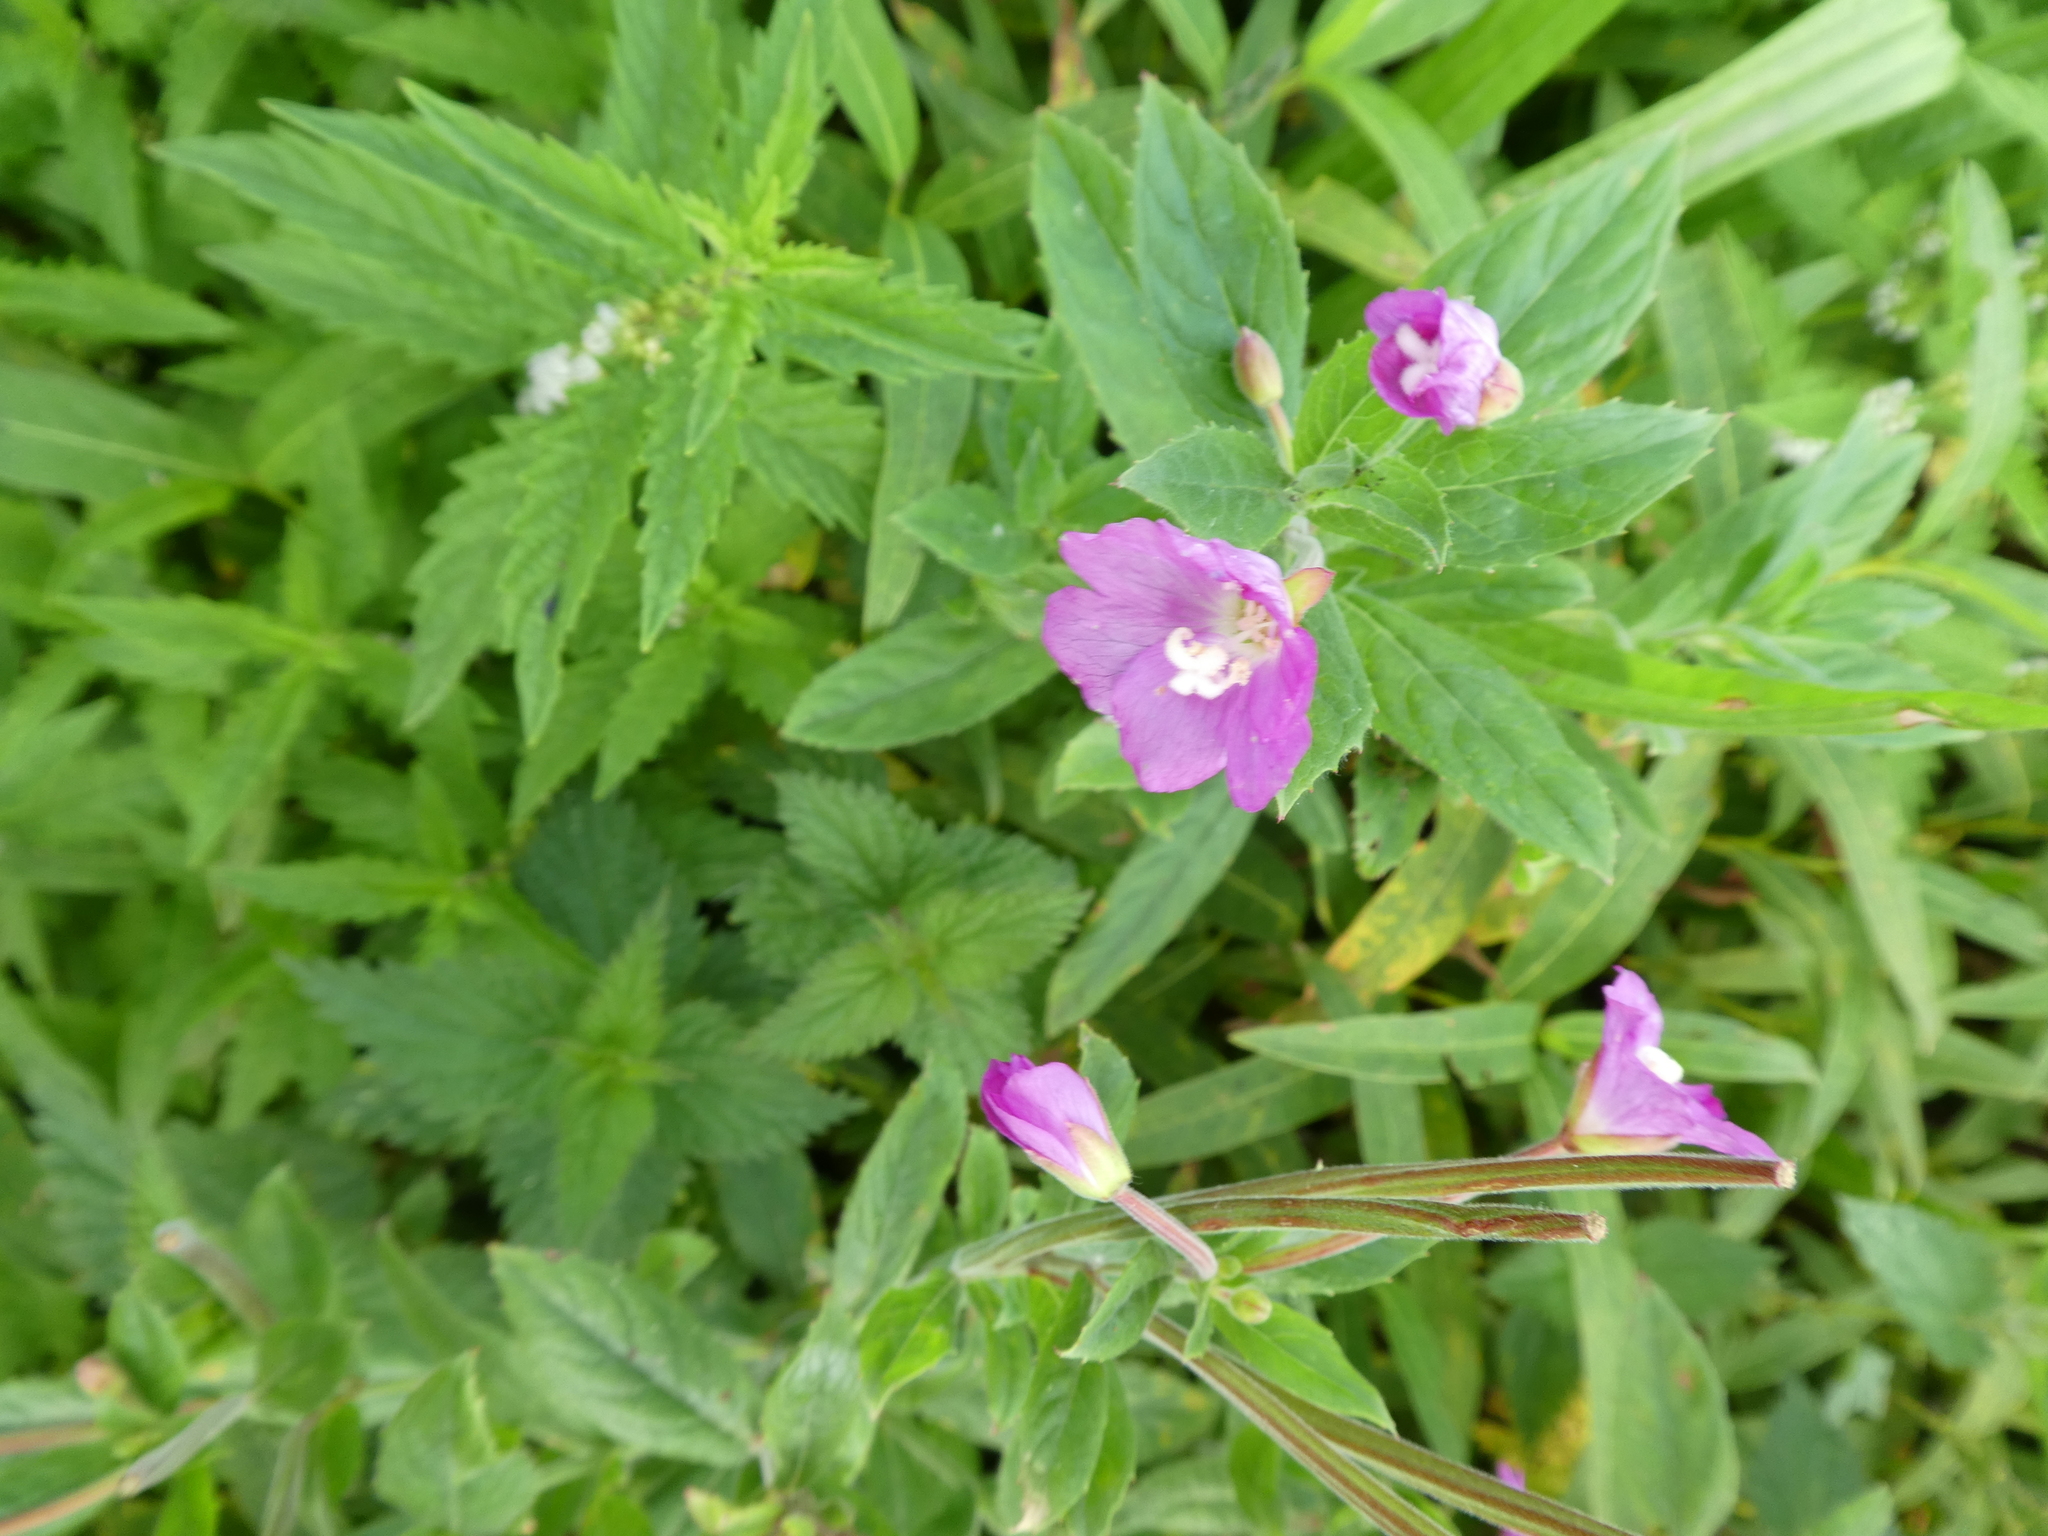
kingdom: Plantae
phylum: Tracheophyta
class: Magnoliopsida
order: Myrtales
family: Onagraceae
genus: Epilobium
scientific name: Epilobium hirsutum
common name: Great willowherb
